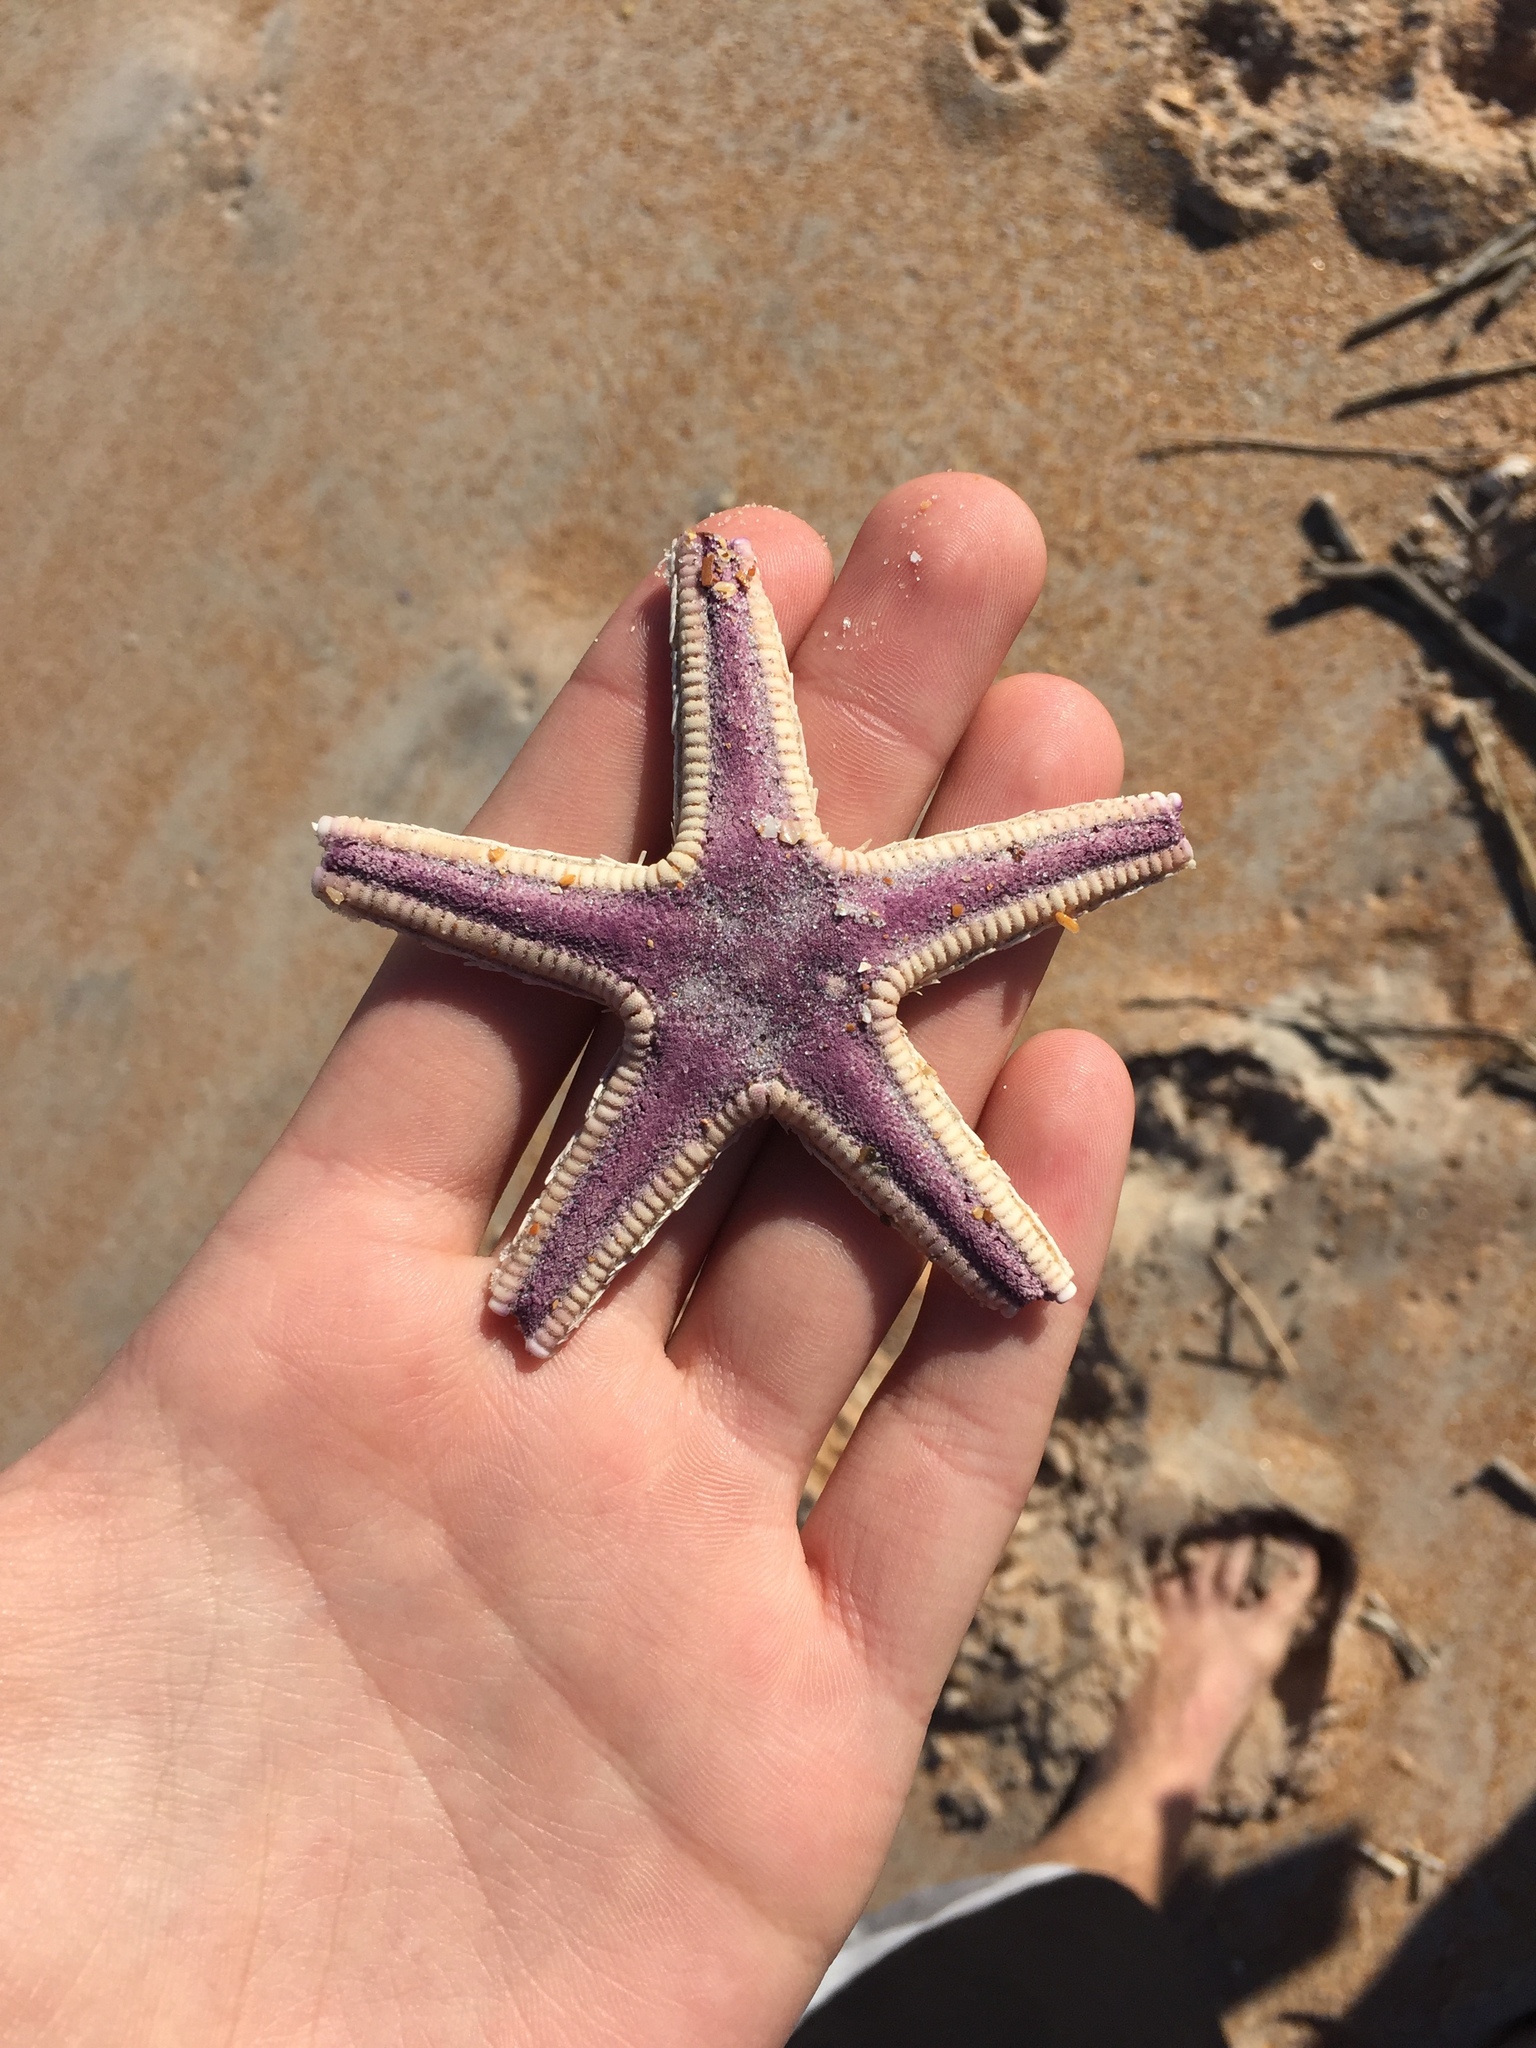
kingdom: Animalia
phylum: Echinodermata
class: Asteroidea
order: Paxillosida
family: Astropectinidae
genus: Astropecten
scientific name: Astropecten articulatus
